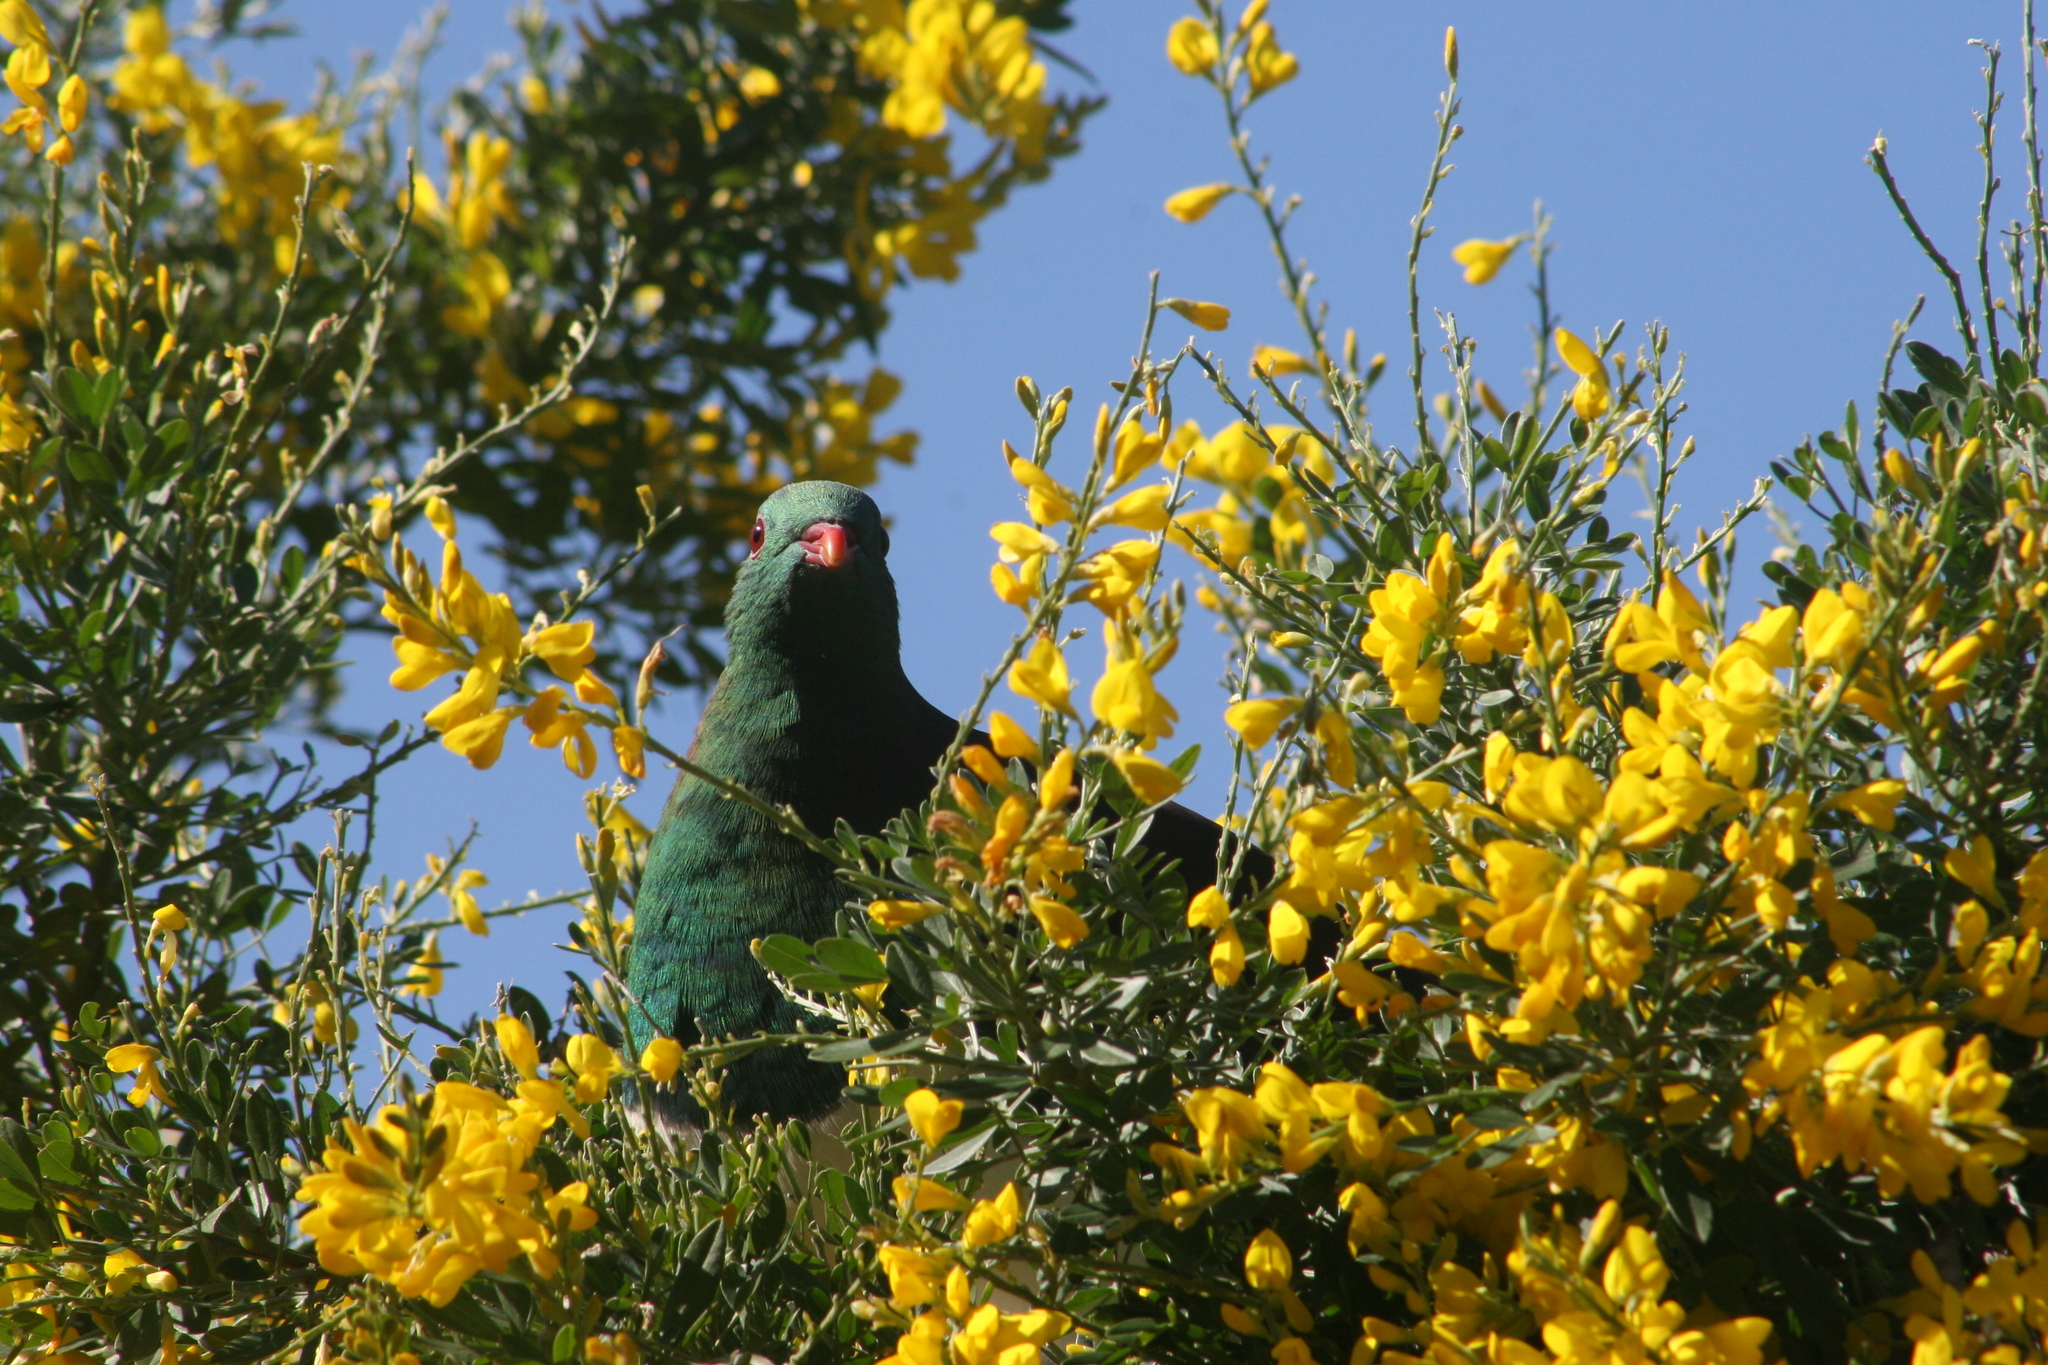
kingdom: Plantae
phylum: Tracheophyta
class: Magnoliopsida
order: Fabales
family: Fabaceae
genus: Genista
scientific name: Genista stenopetala
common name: Leafy broom
